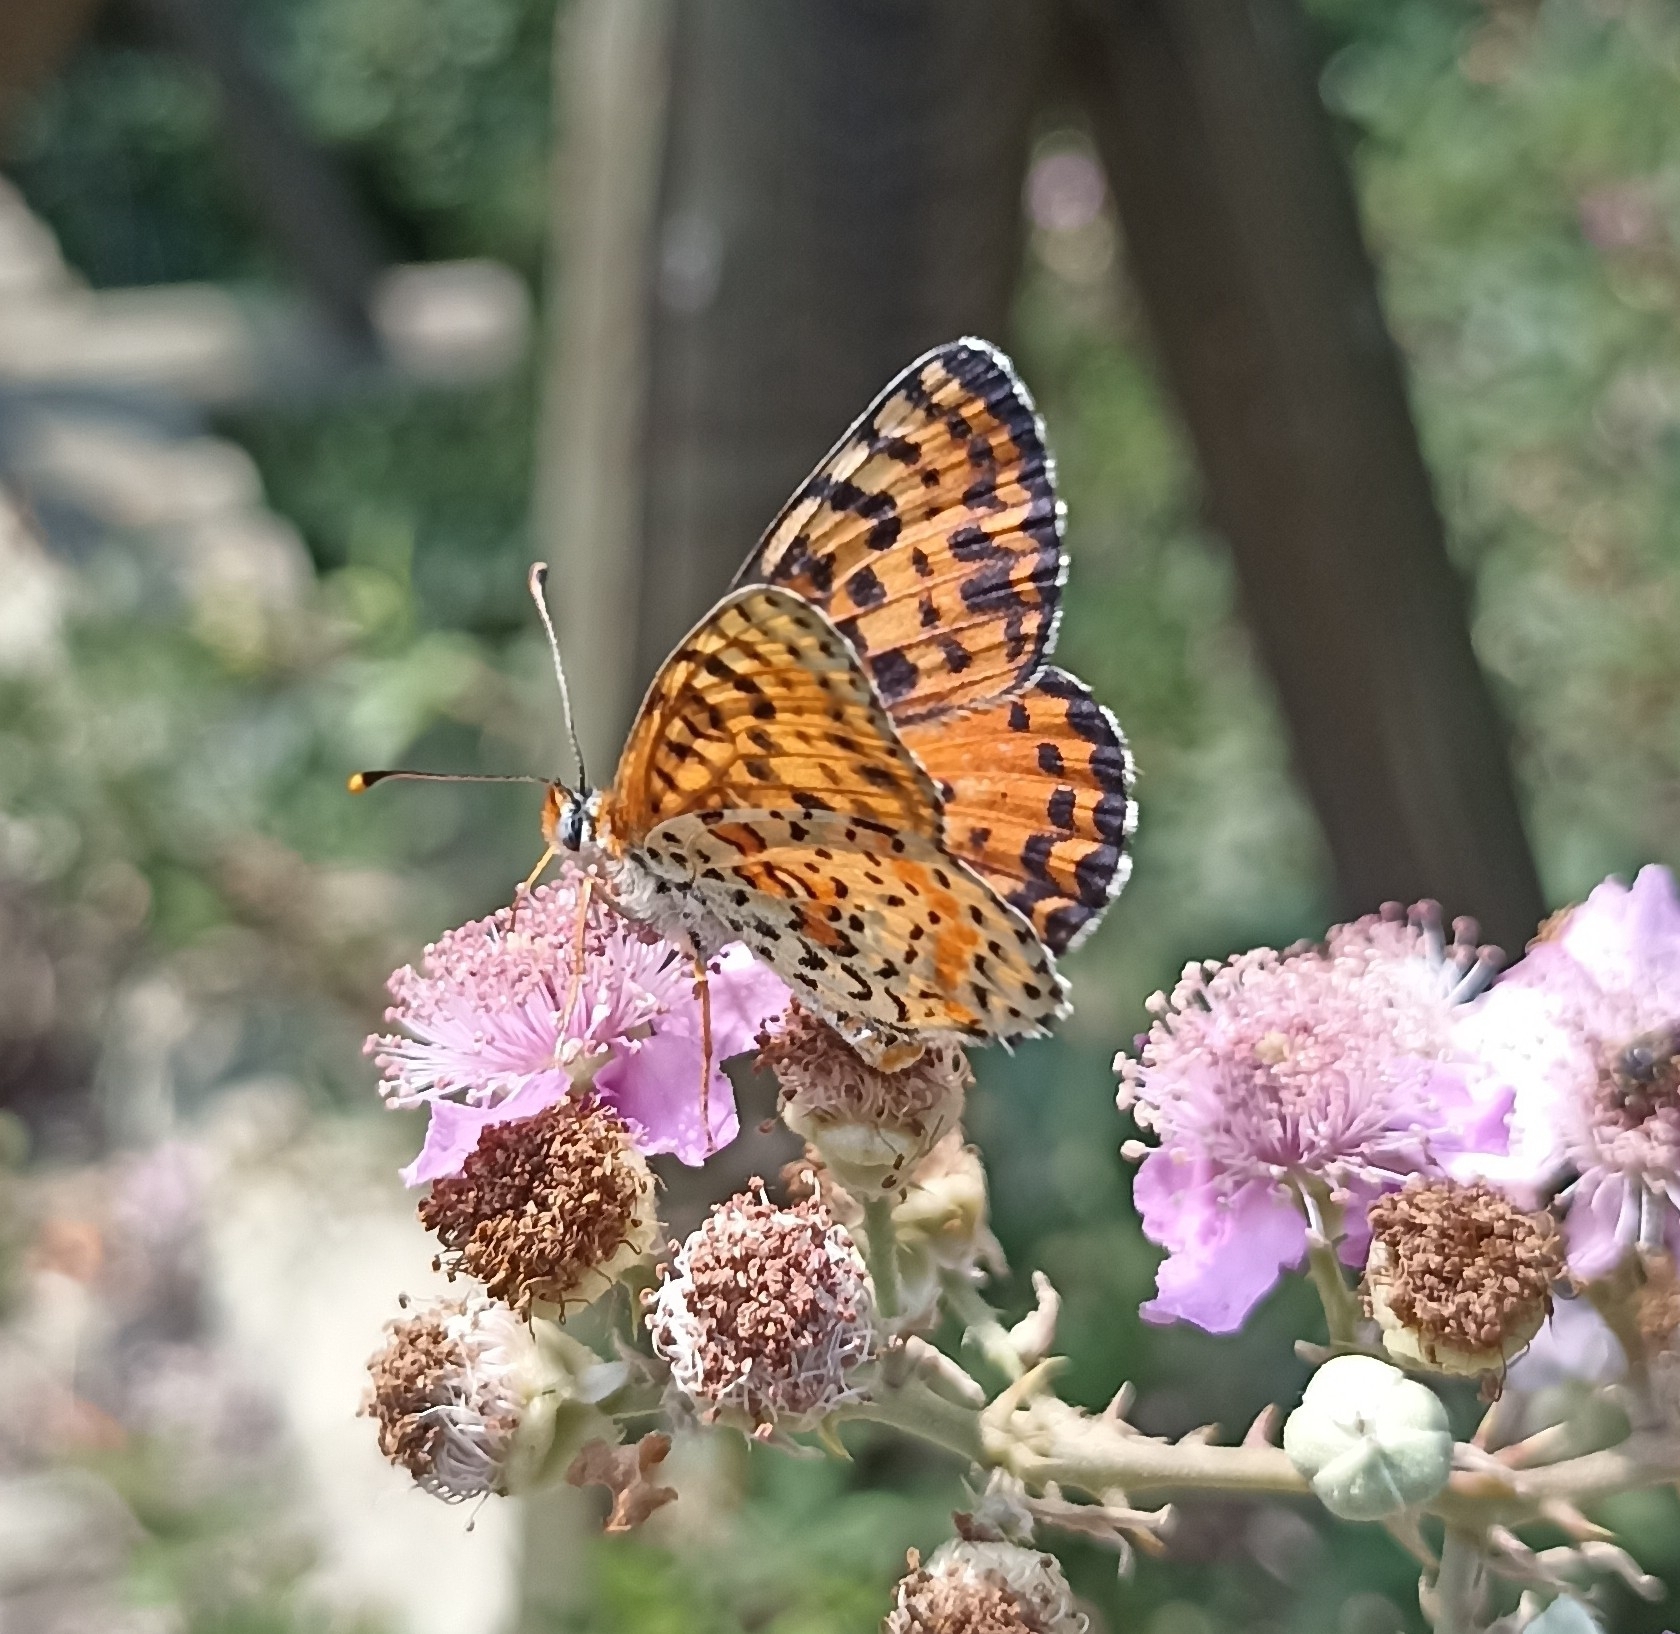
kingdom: Animalia
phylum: Arthropoda
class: Insecta
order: Lepidoptera
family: Nymphalidae
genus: Melitaea
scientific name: Melitaea didyma
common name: Spotted fritillary
